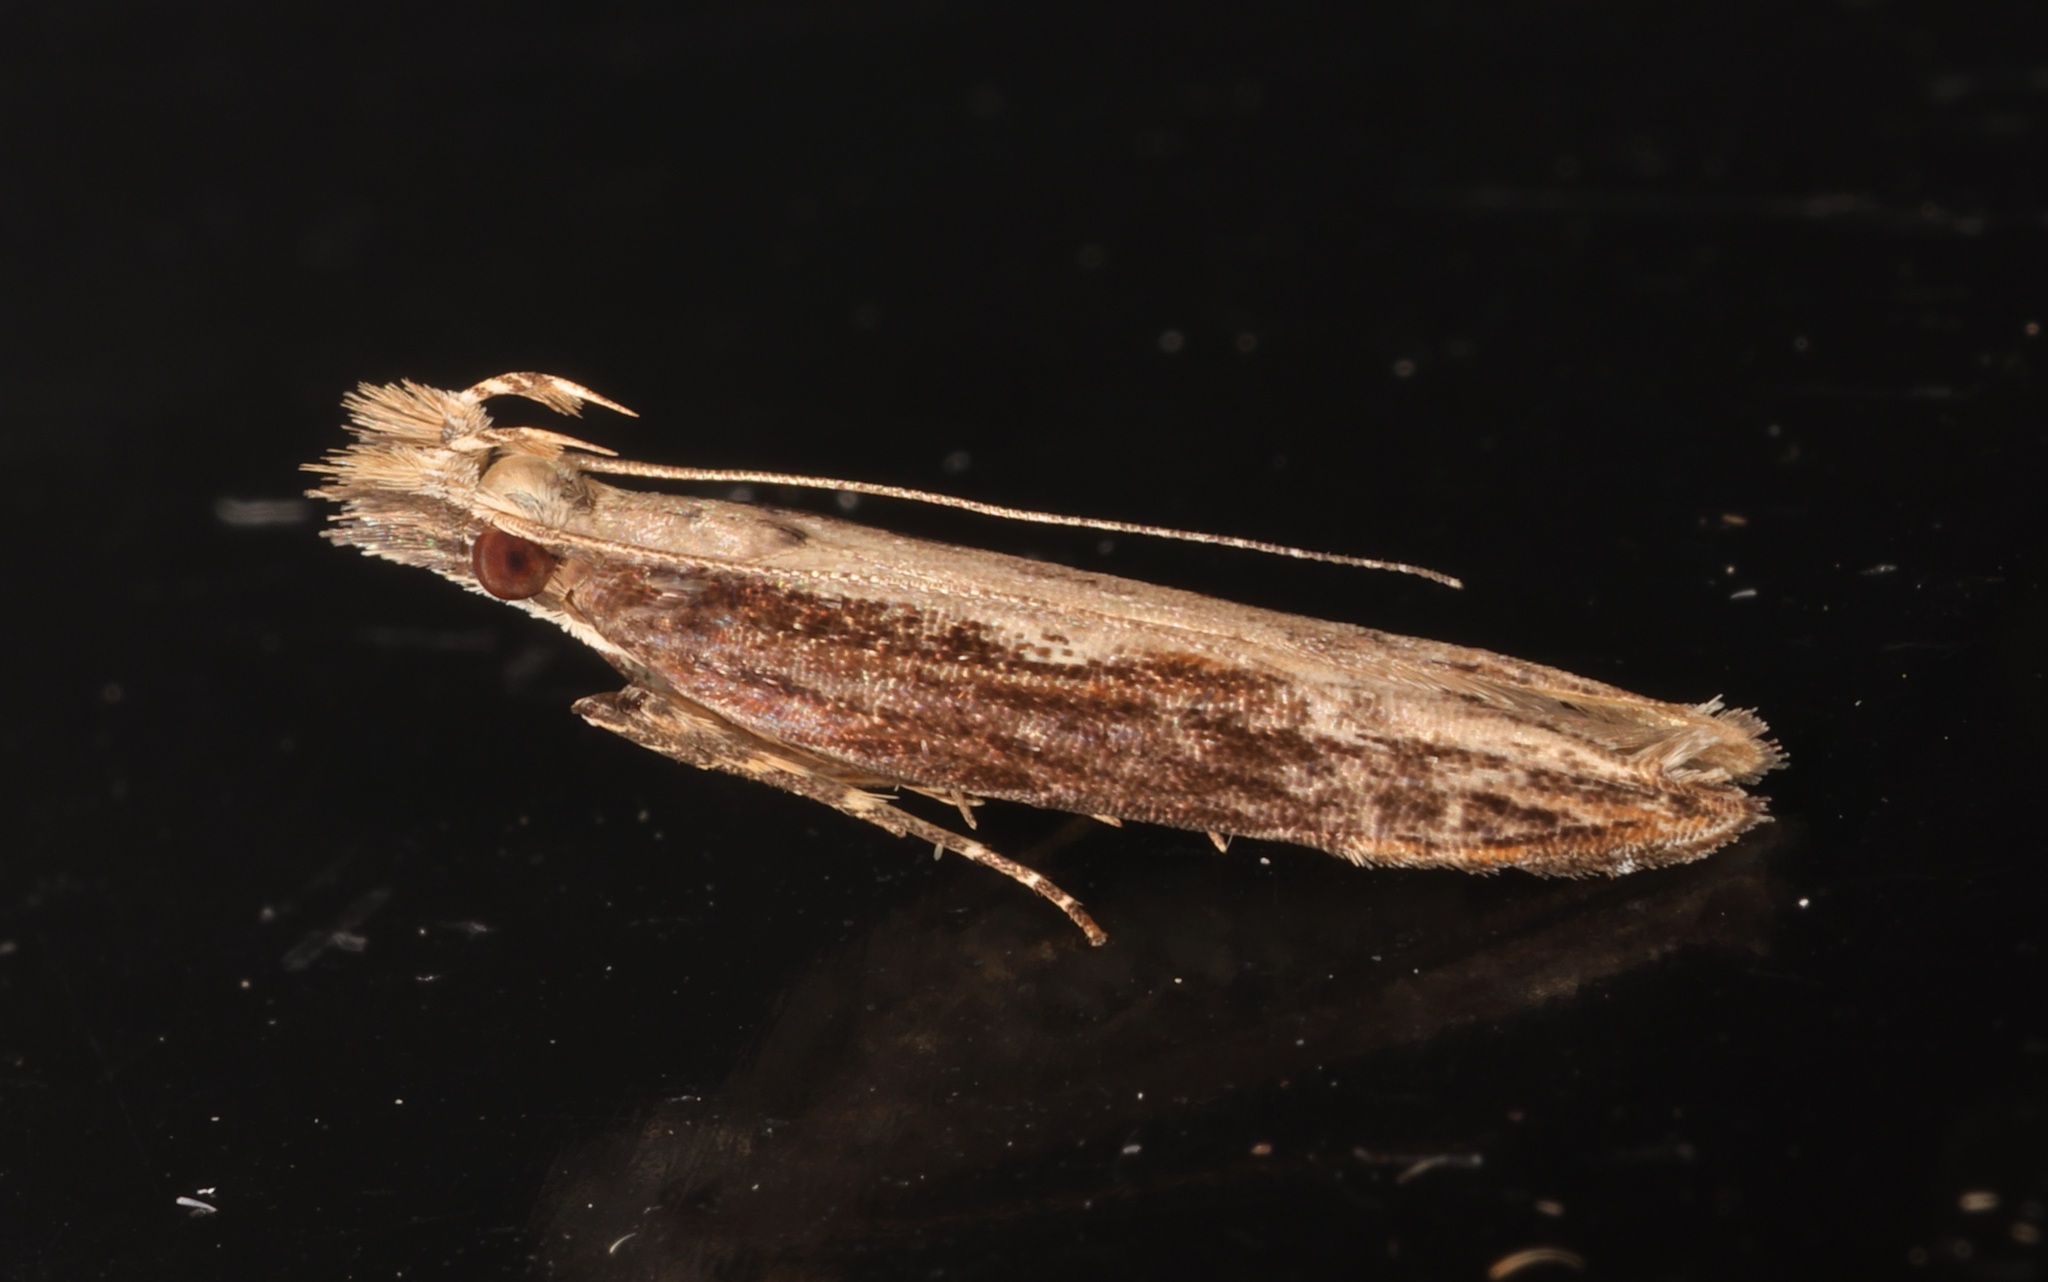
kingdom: Animalia
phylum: Arthropoda
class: Insecta
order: Lepidoptera
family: Gelechiidae
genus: Hypatima
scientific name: Hypatima spathota
